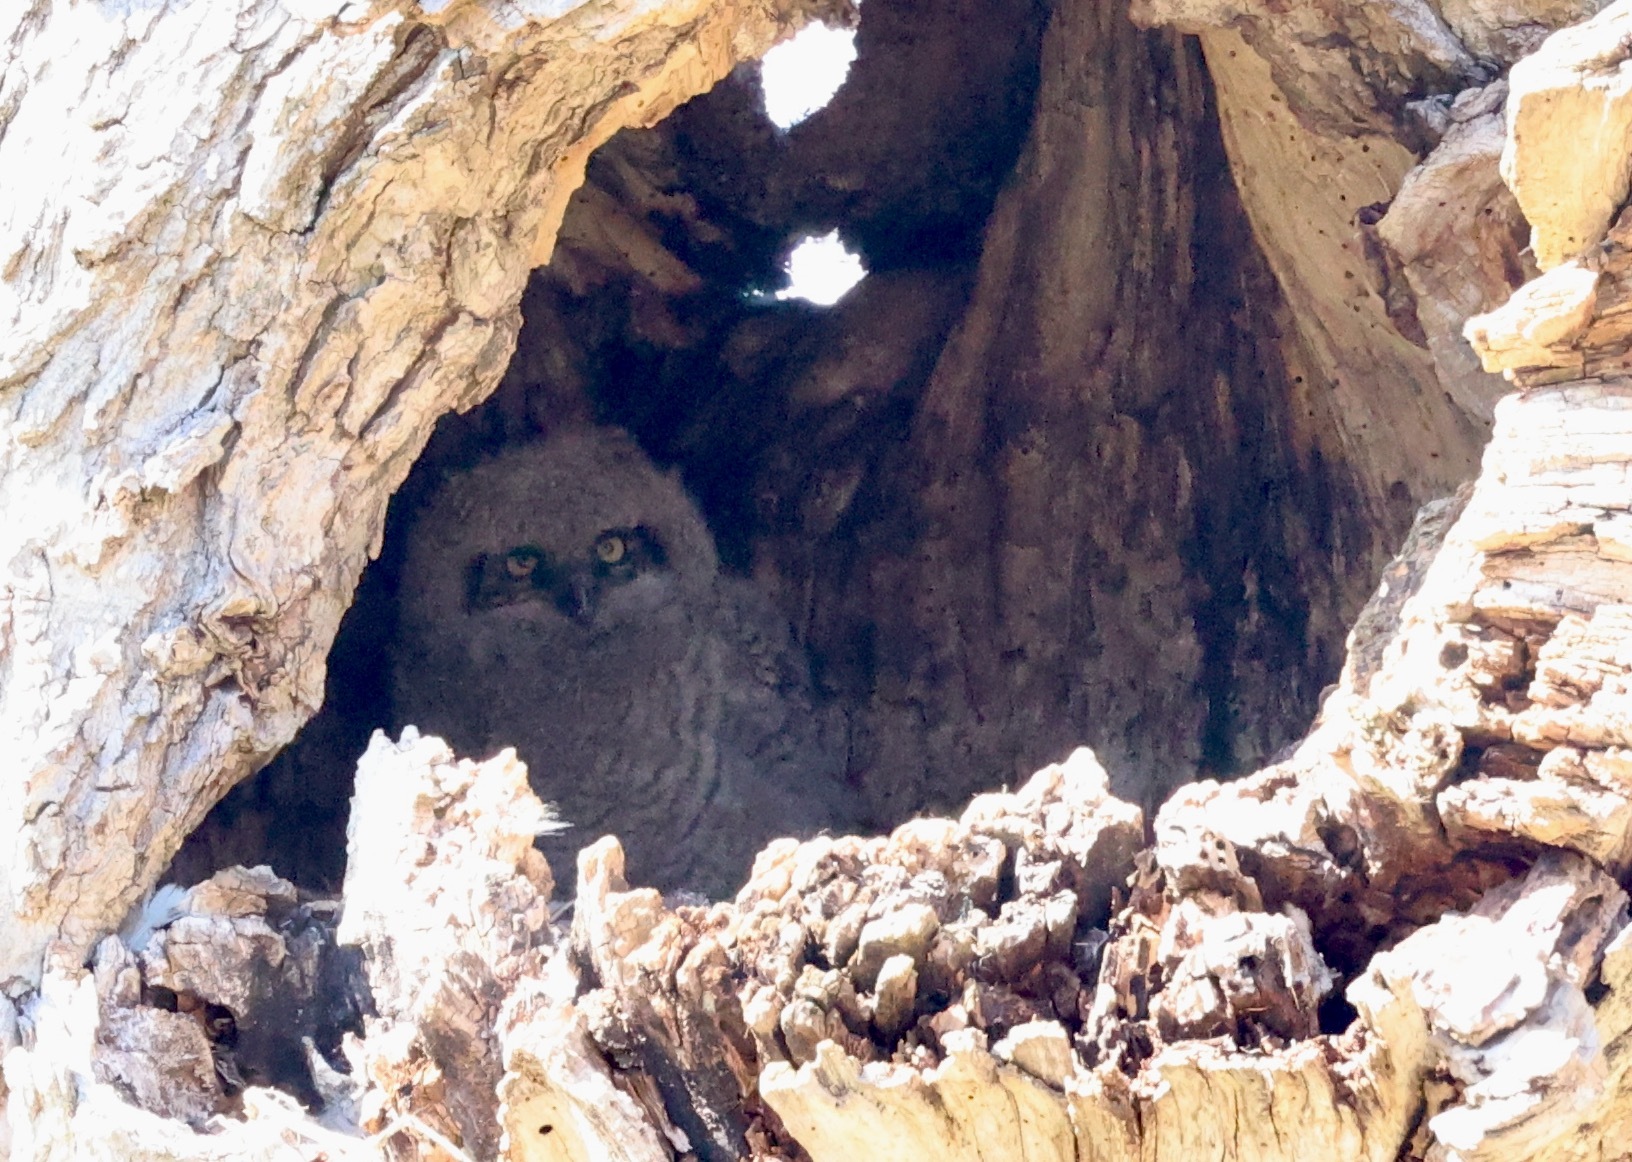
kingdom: Animalia
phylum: Chordata
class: Aves
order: Strigiformes
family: Strigidae
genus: Bubo
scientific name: Bubo virginianus
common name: Great horned owl
